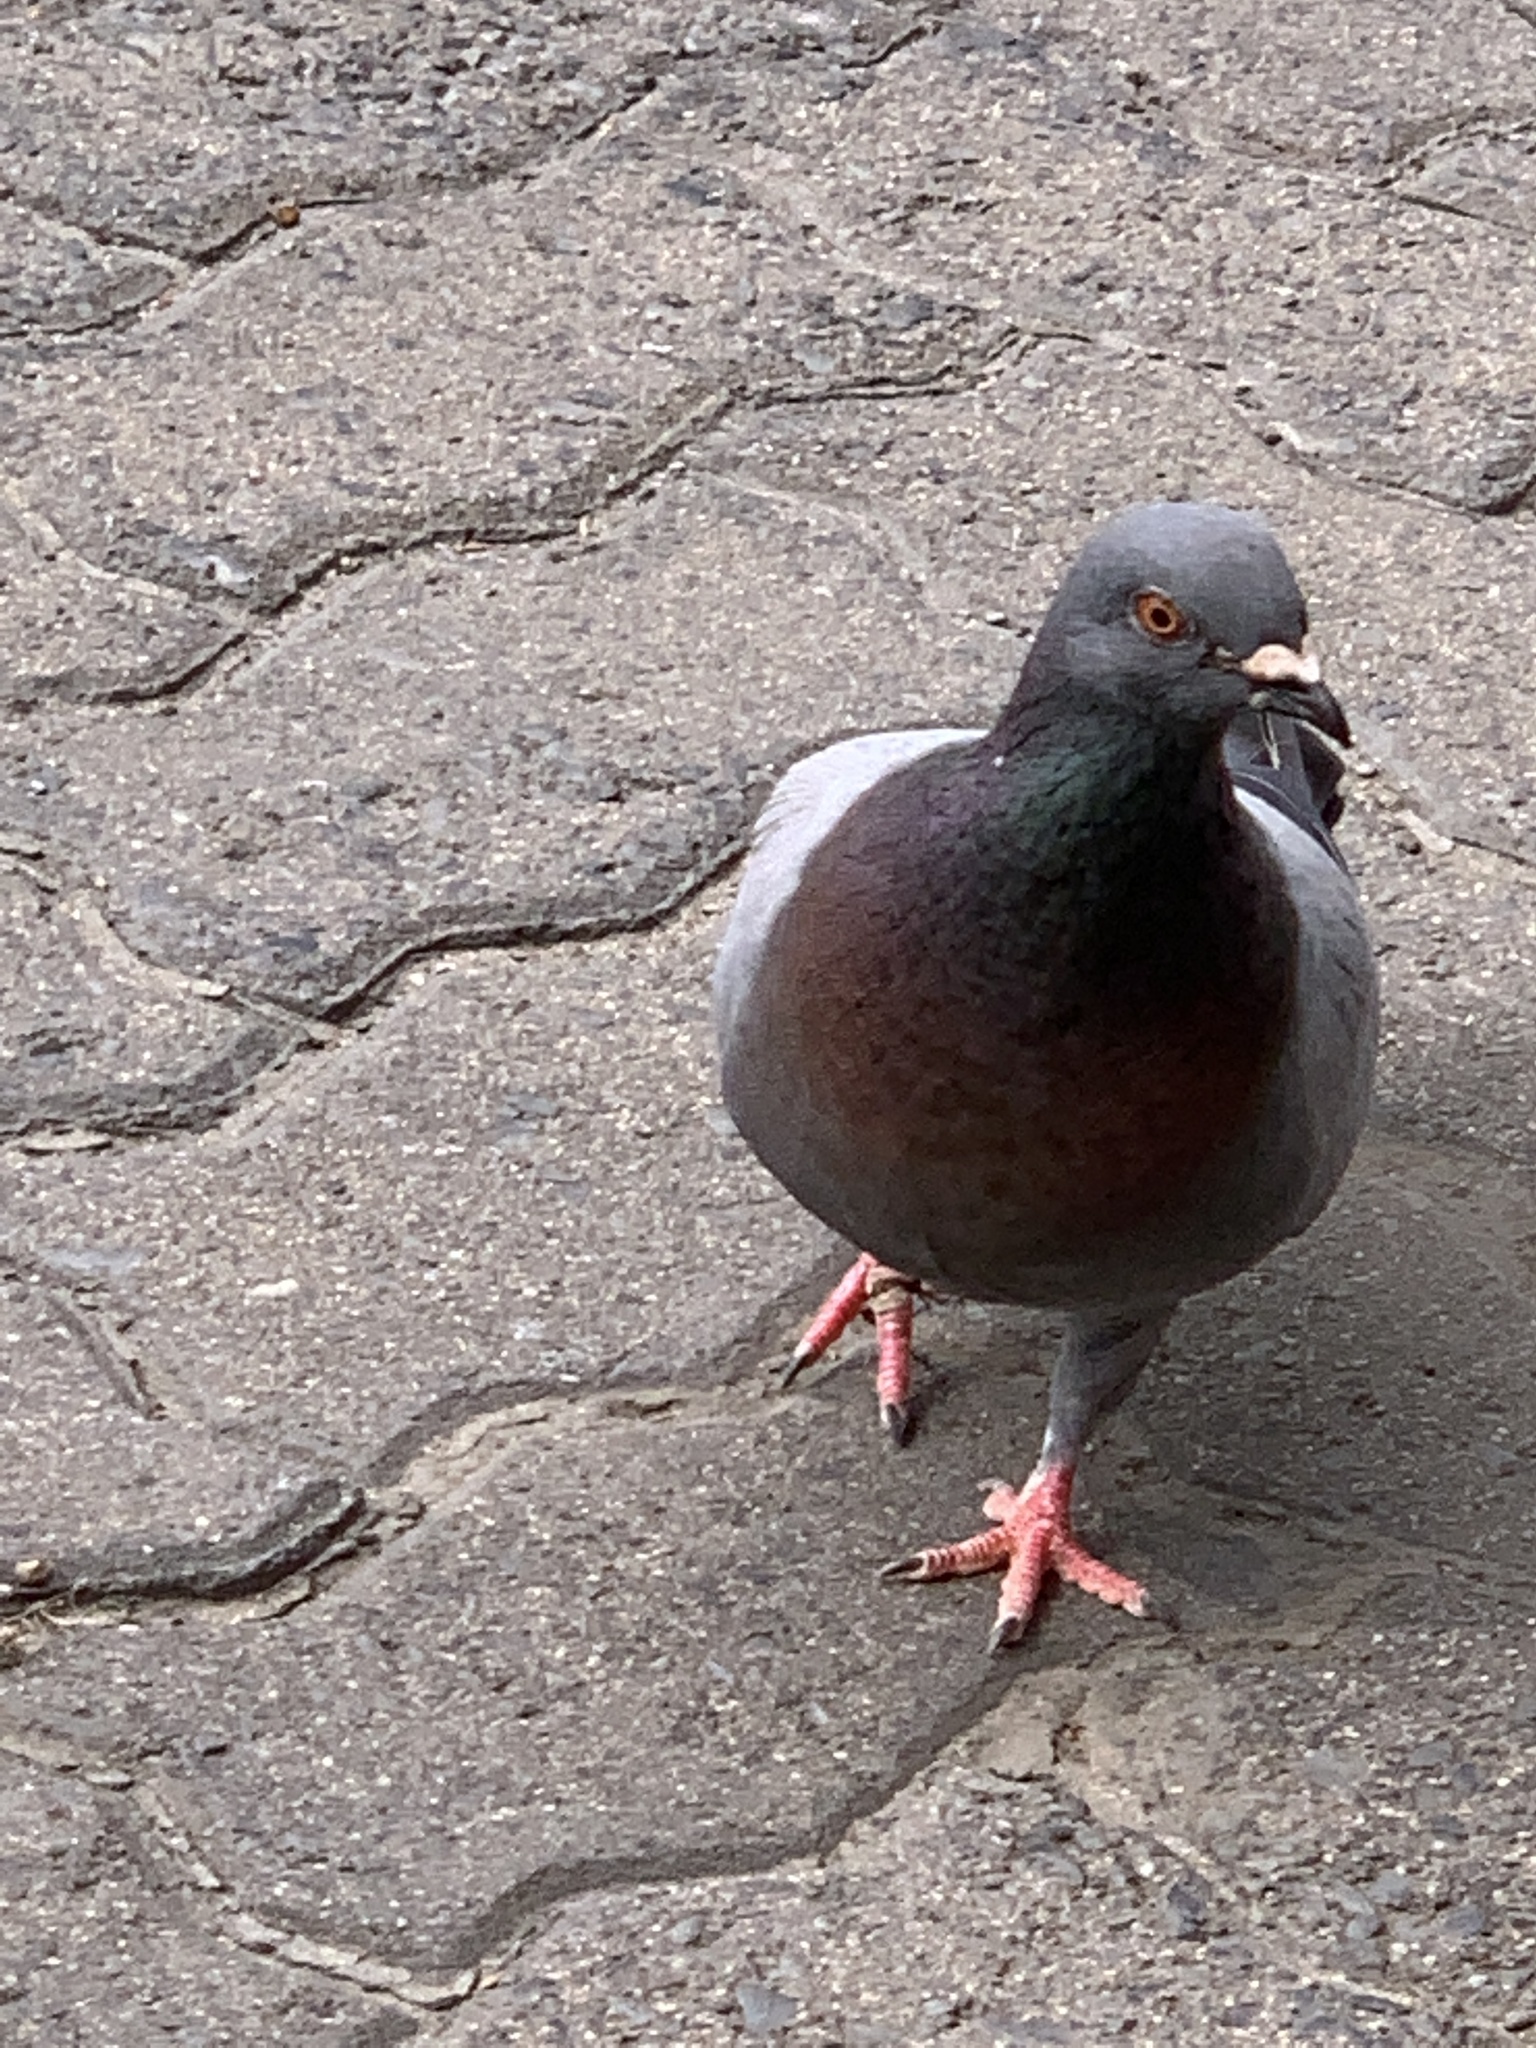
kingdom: Animalia
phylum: Chordata
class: Aves
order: Columbiformes
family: Columbidae
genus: Columba
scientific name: Columba livia
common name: Rock pigeon
